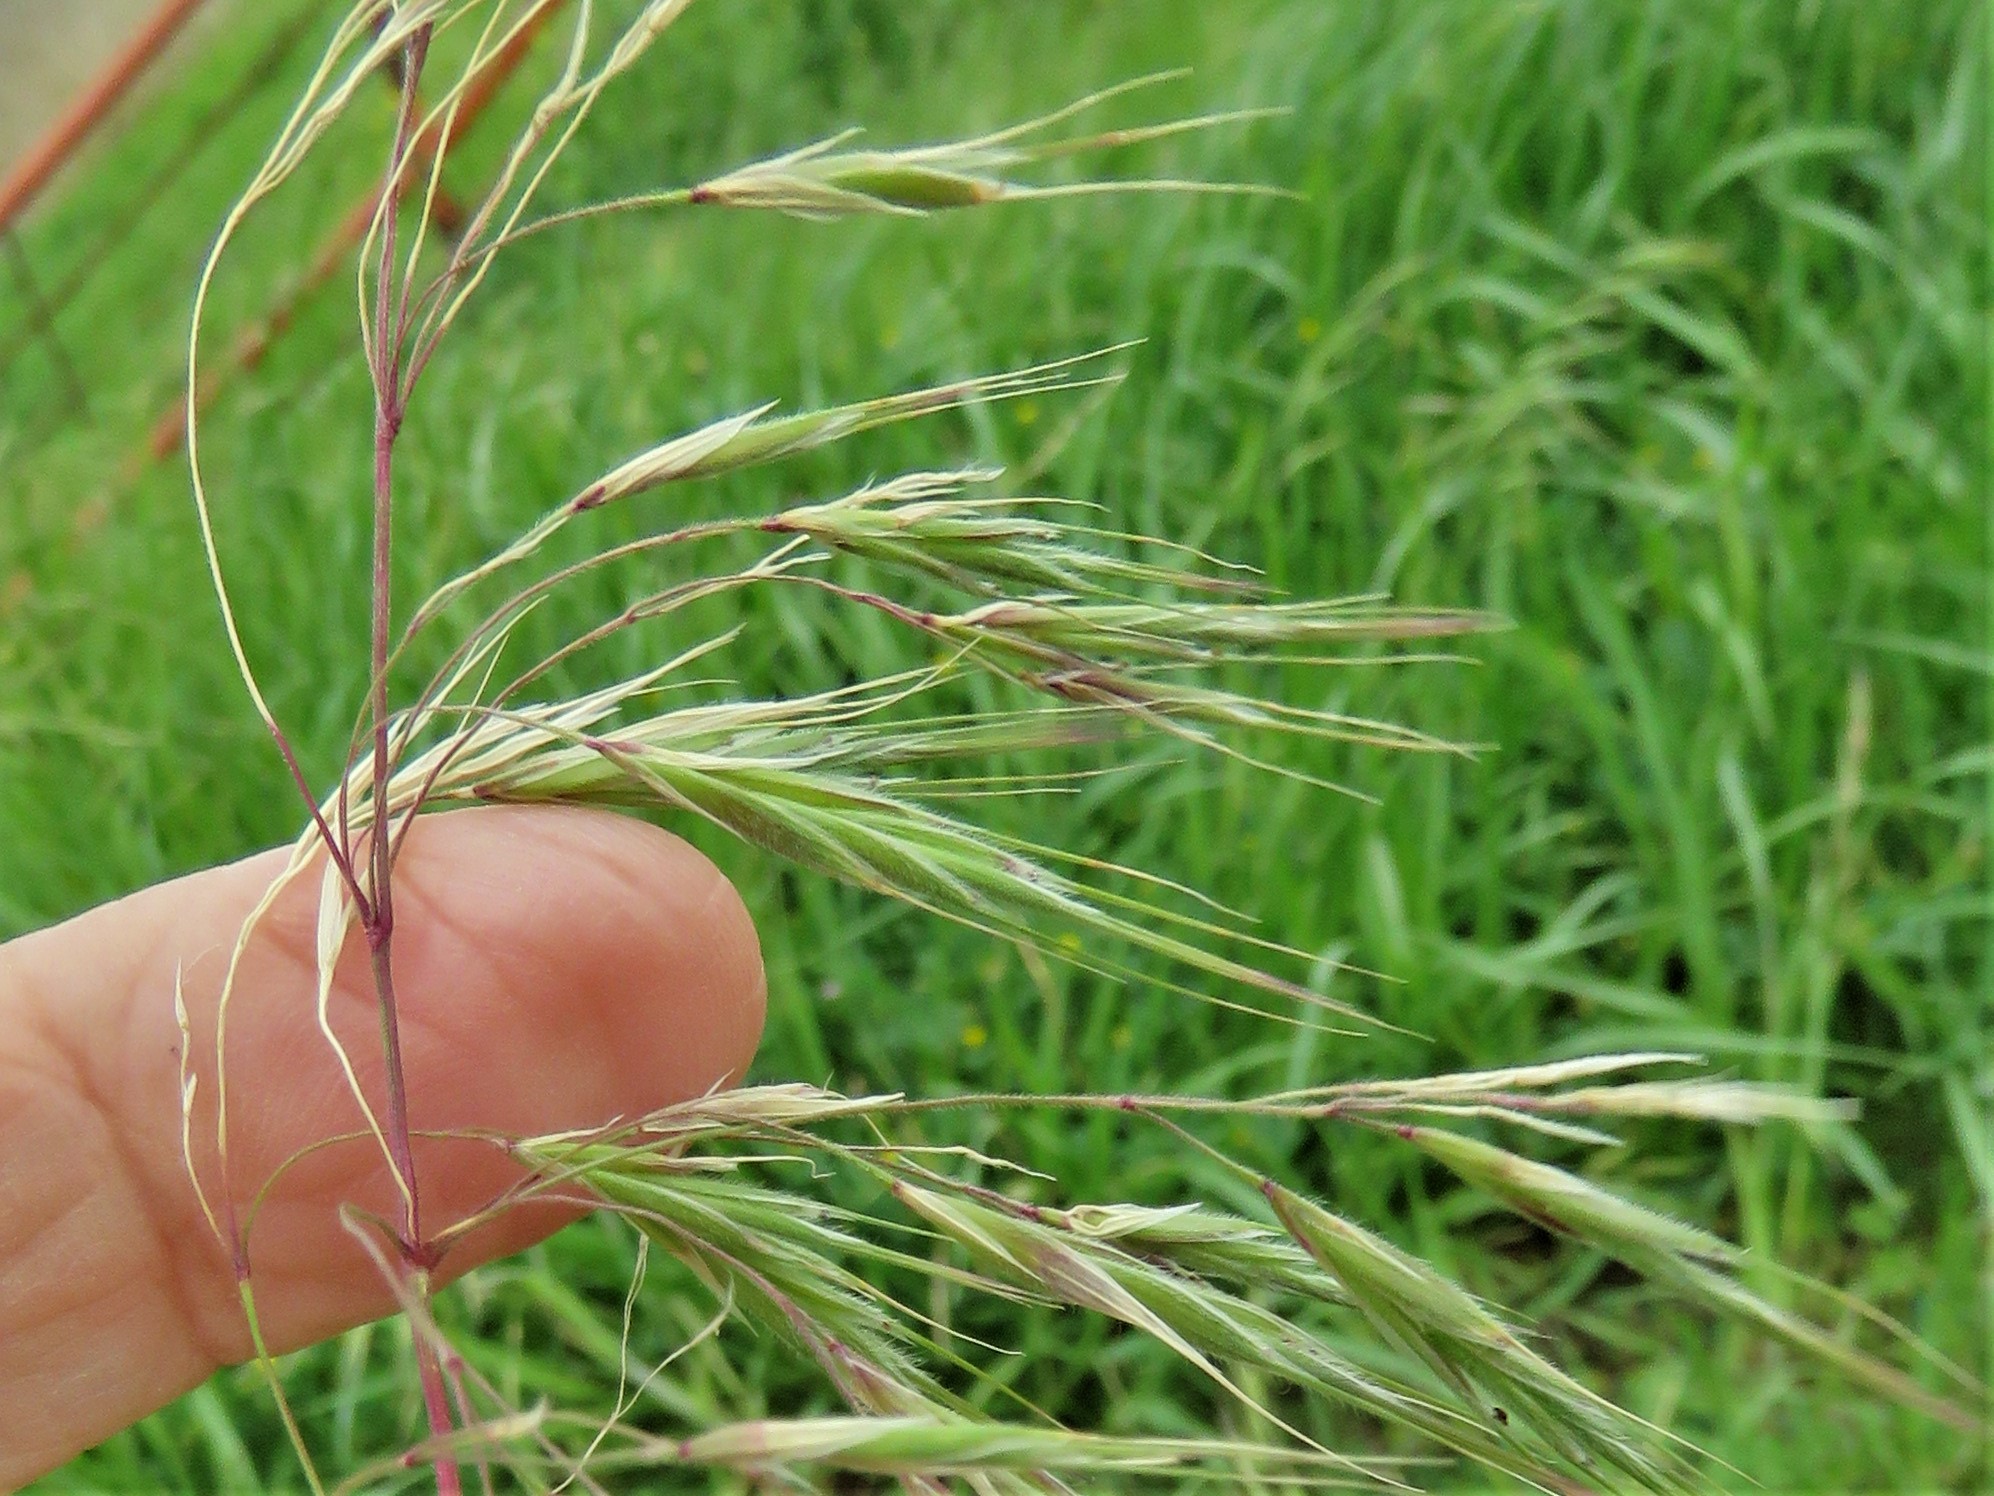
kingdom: Plantae
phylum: Tracheophyta
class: Liliopsida
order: Poales
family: Poaceae
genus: Bromus
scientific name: Bromus tectorum
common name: Cheatgrass
